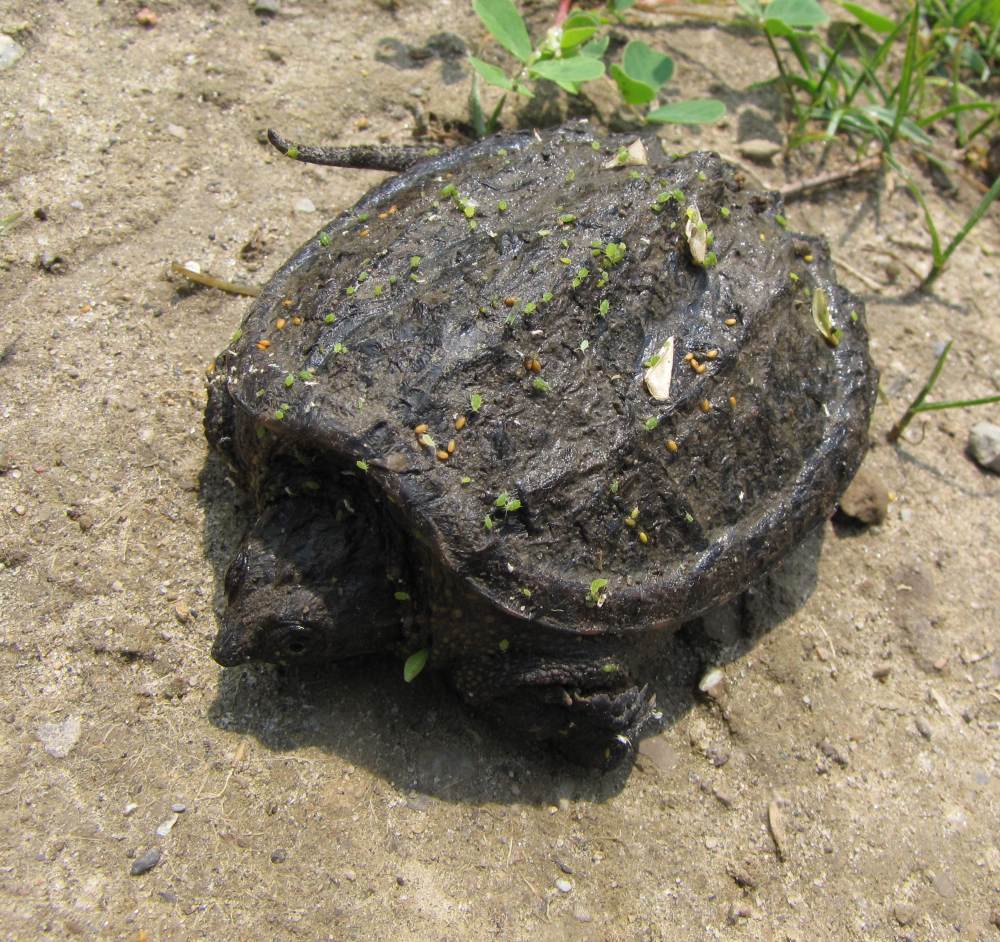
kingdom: Animalia
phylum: Chordata
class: Testudines
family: Chelydridae
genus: Chelydra
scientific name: Chelydra serpentina
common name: Common snapping turtle
